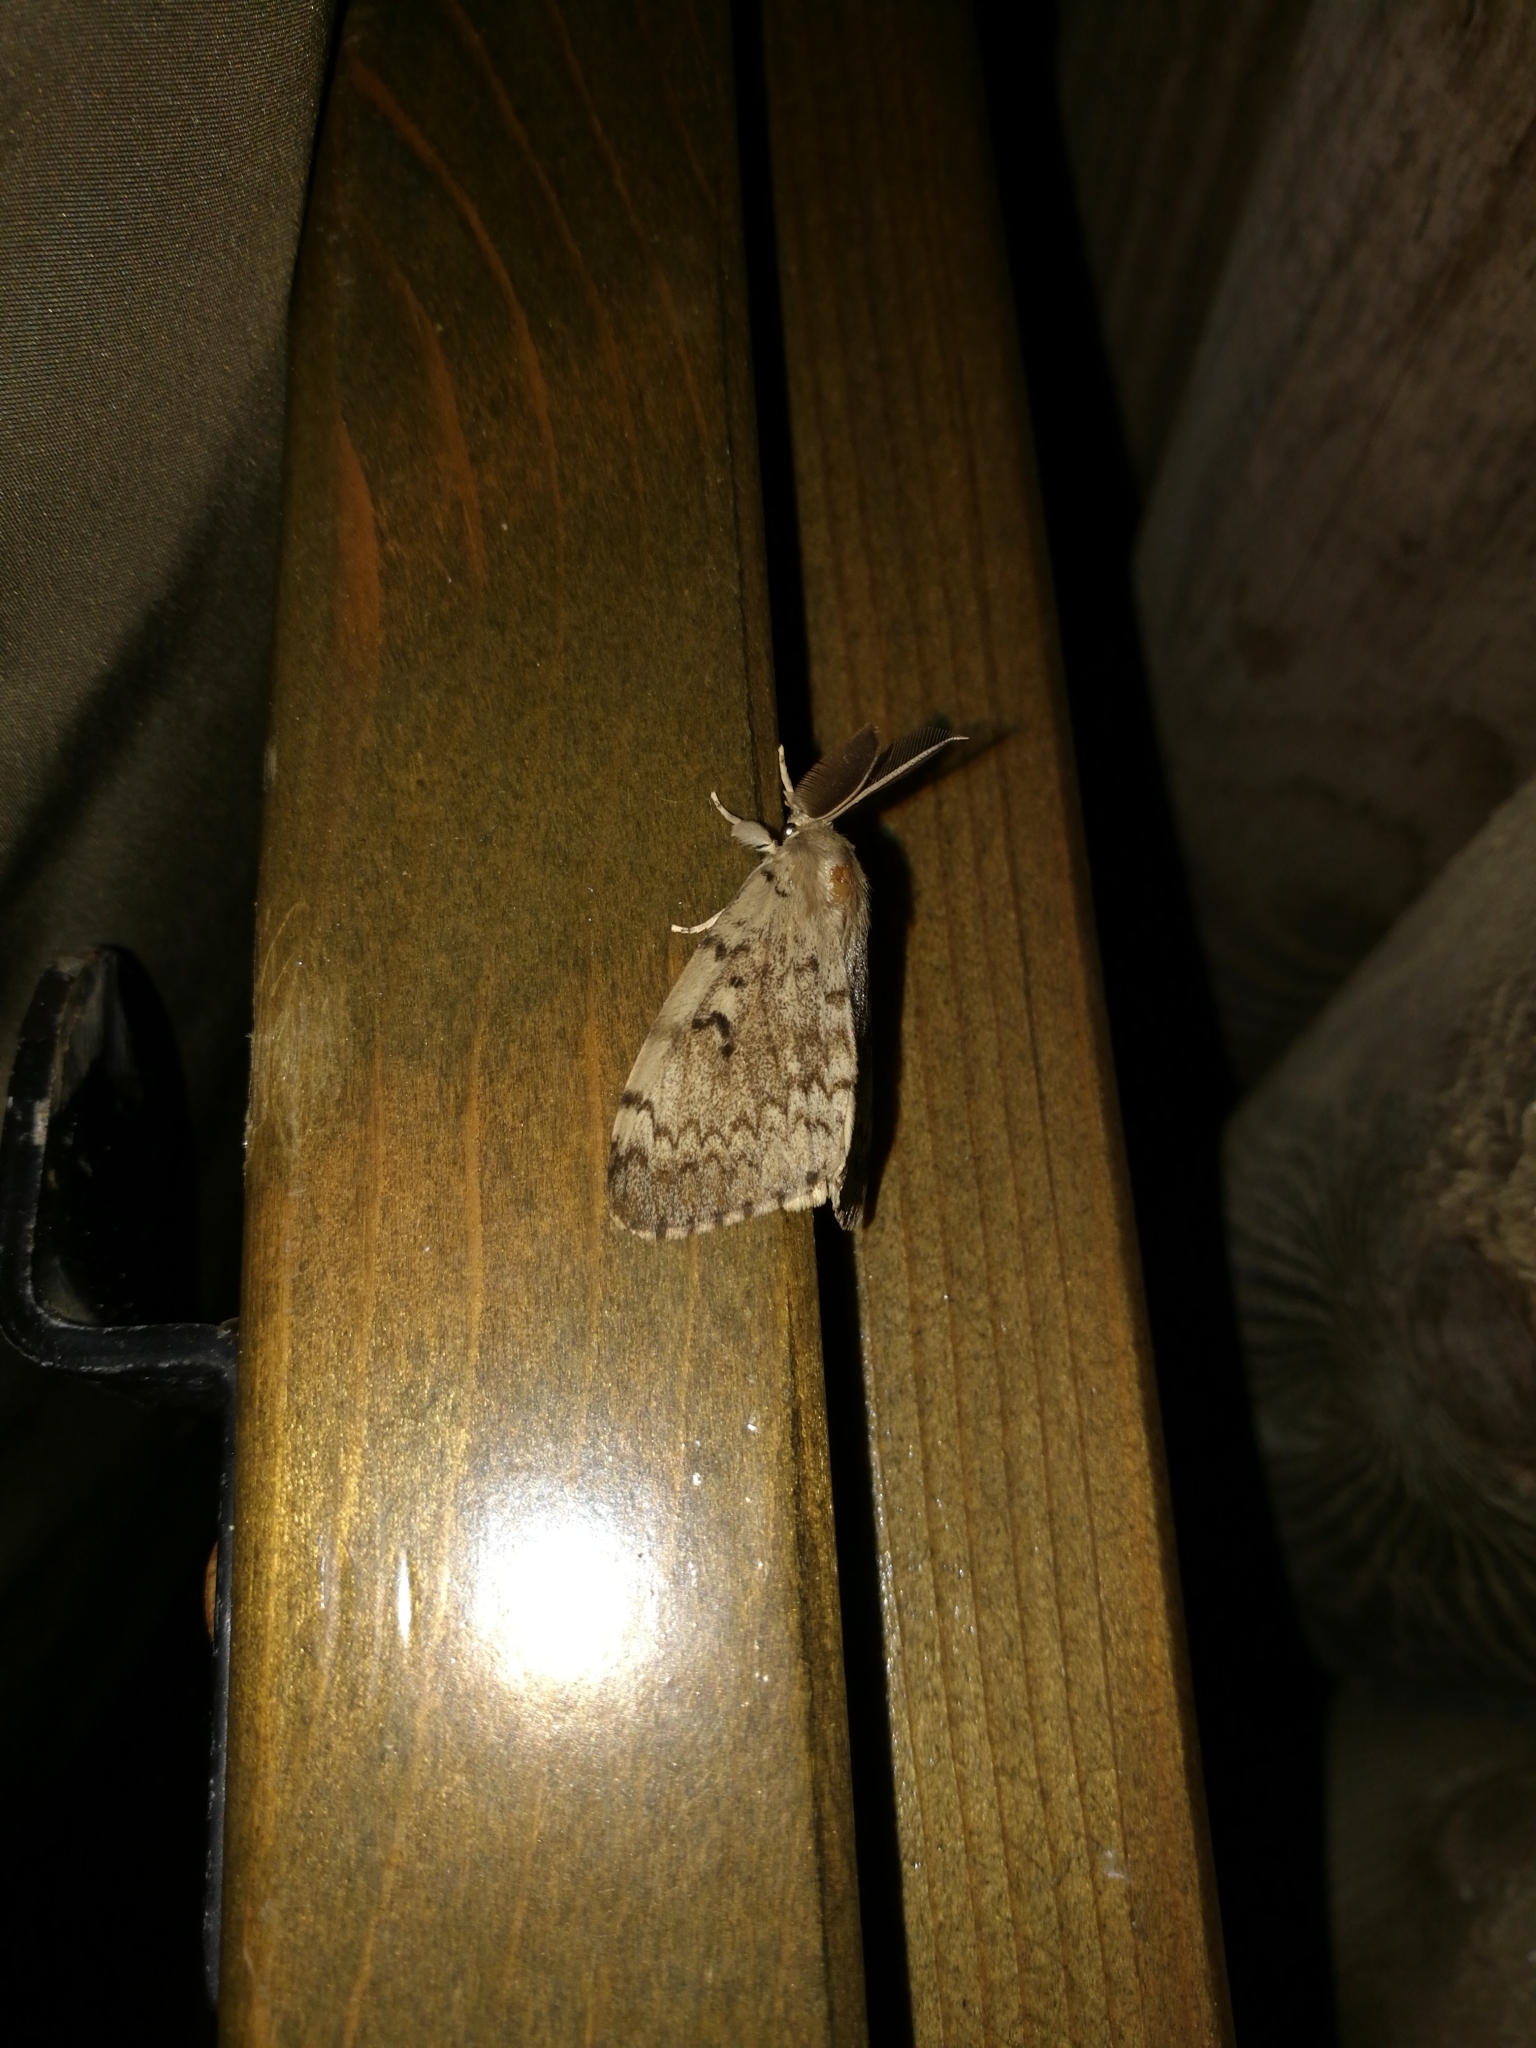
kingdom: Animalia
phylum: Arthropoda
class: Insecta
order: Lepidoptera
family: Erebidae
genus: Lymantria
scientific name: Lymantria dispar
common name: Gypsy moth
